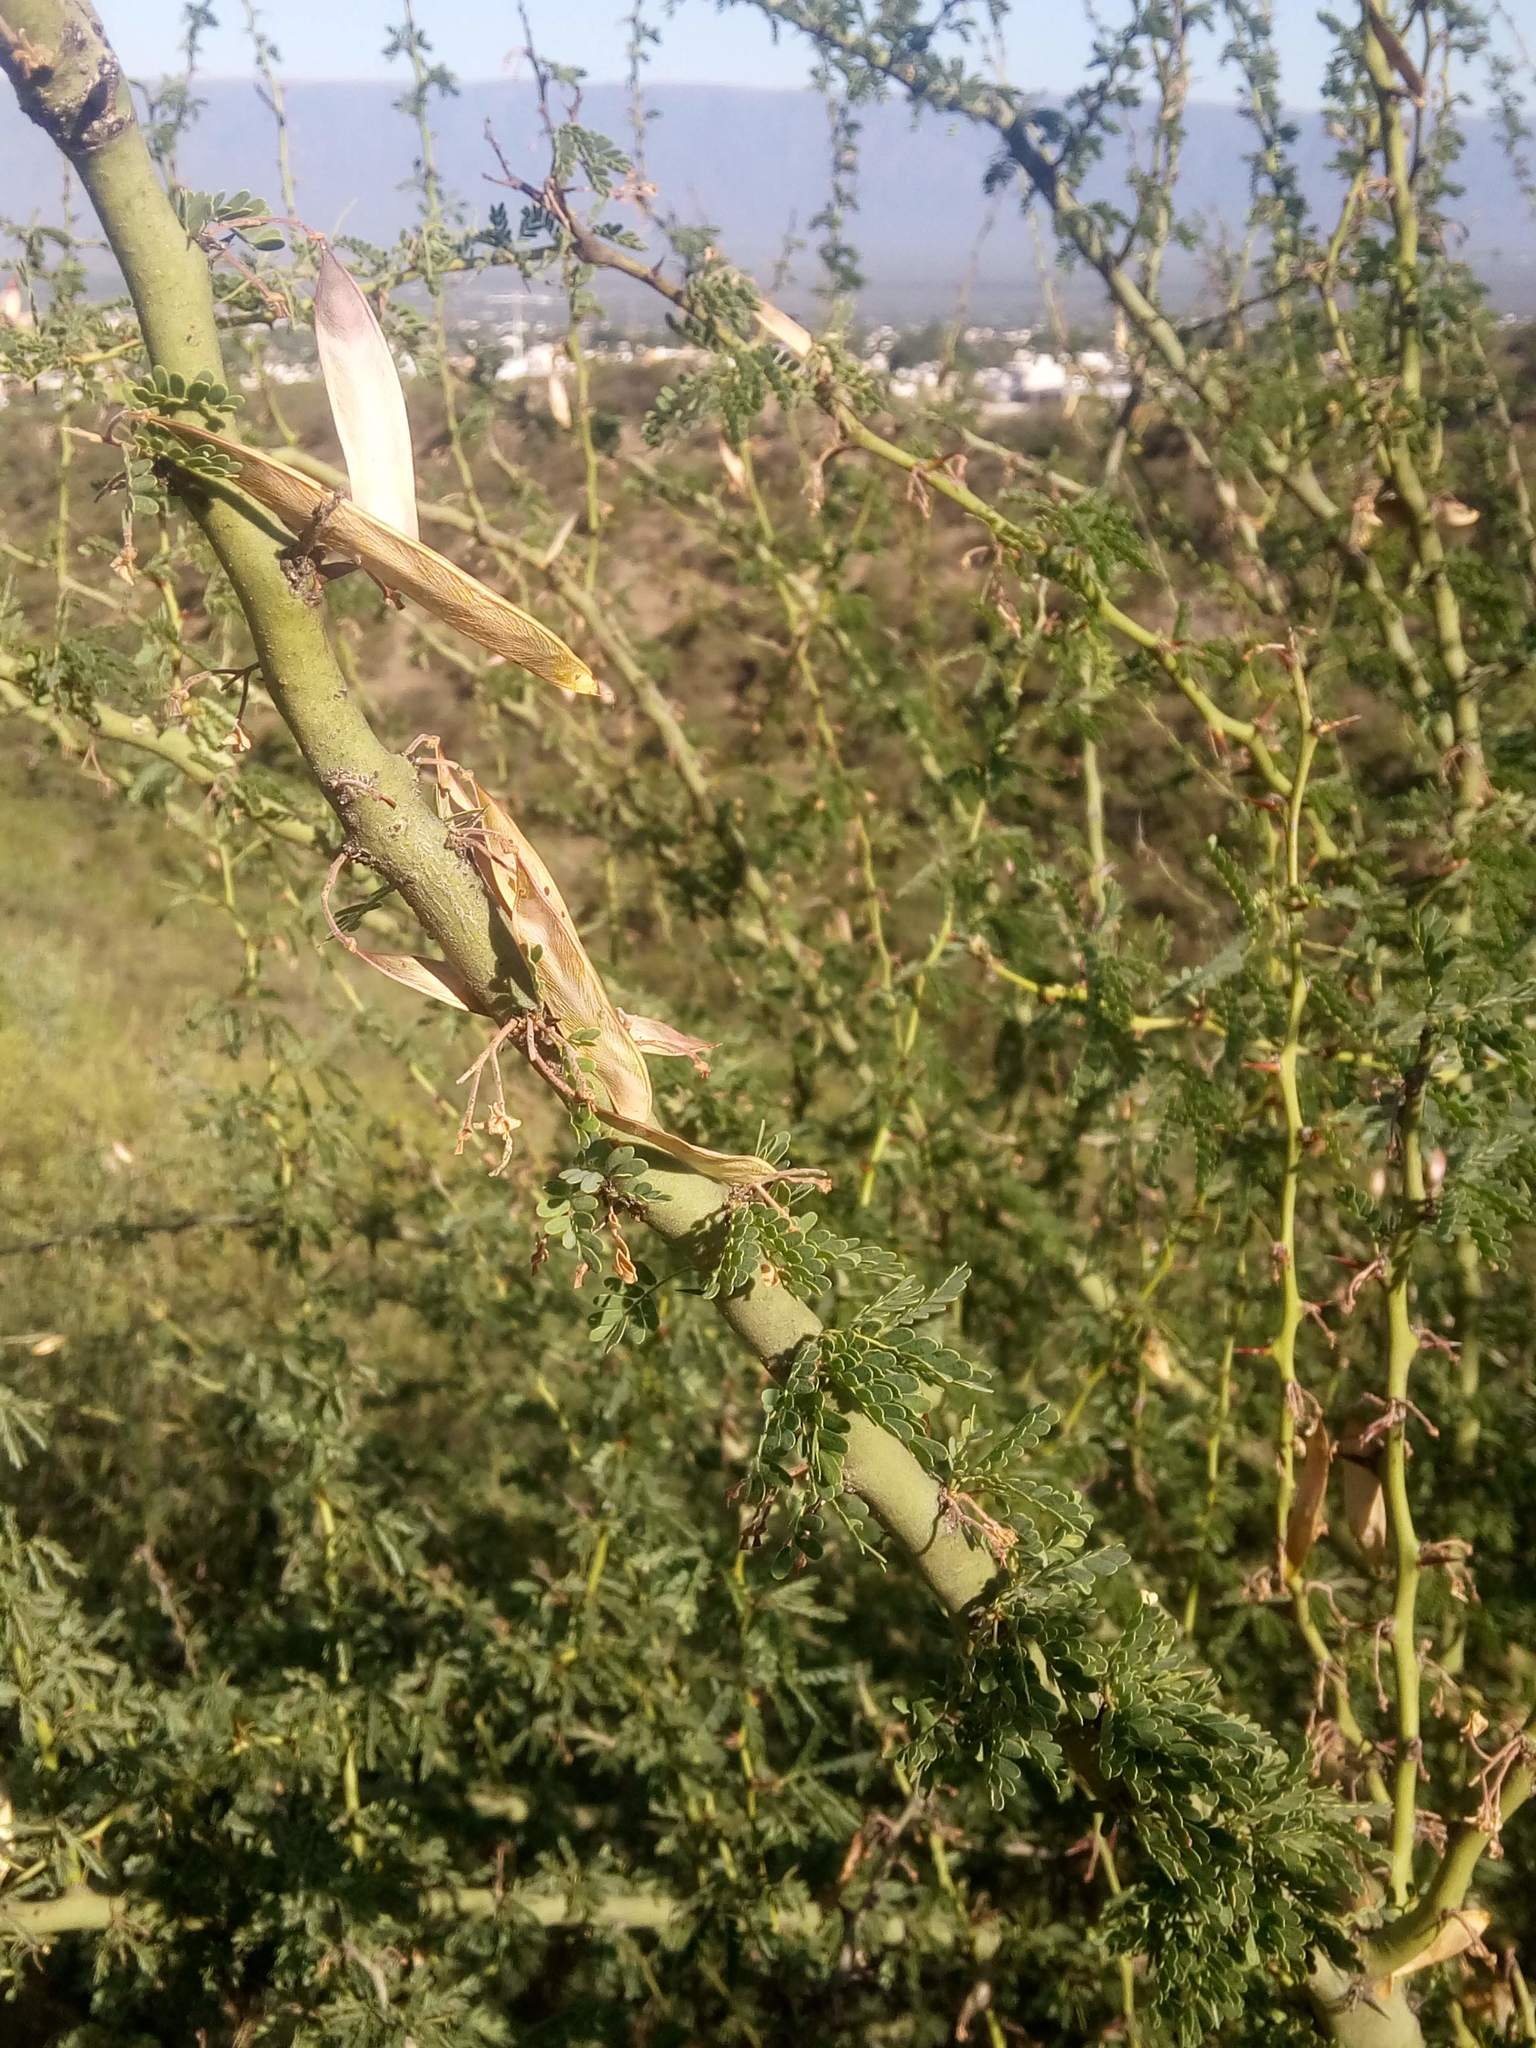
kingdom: Plantae
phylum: Tracheophyta
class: Magnoliopsida
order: Fabales
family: Fabaceae
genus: Parkinsonia
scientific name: Parkinsonia praecox
